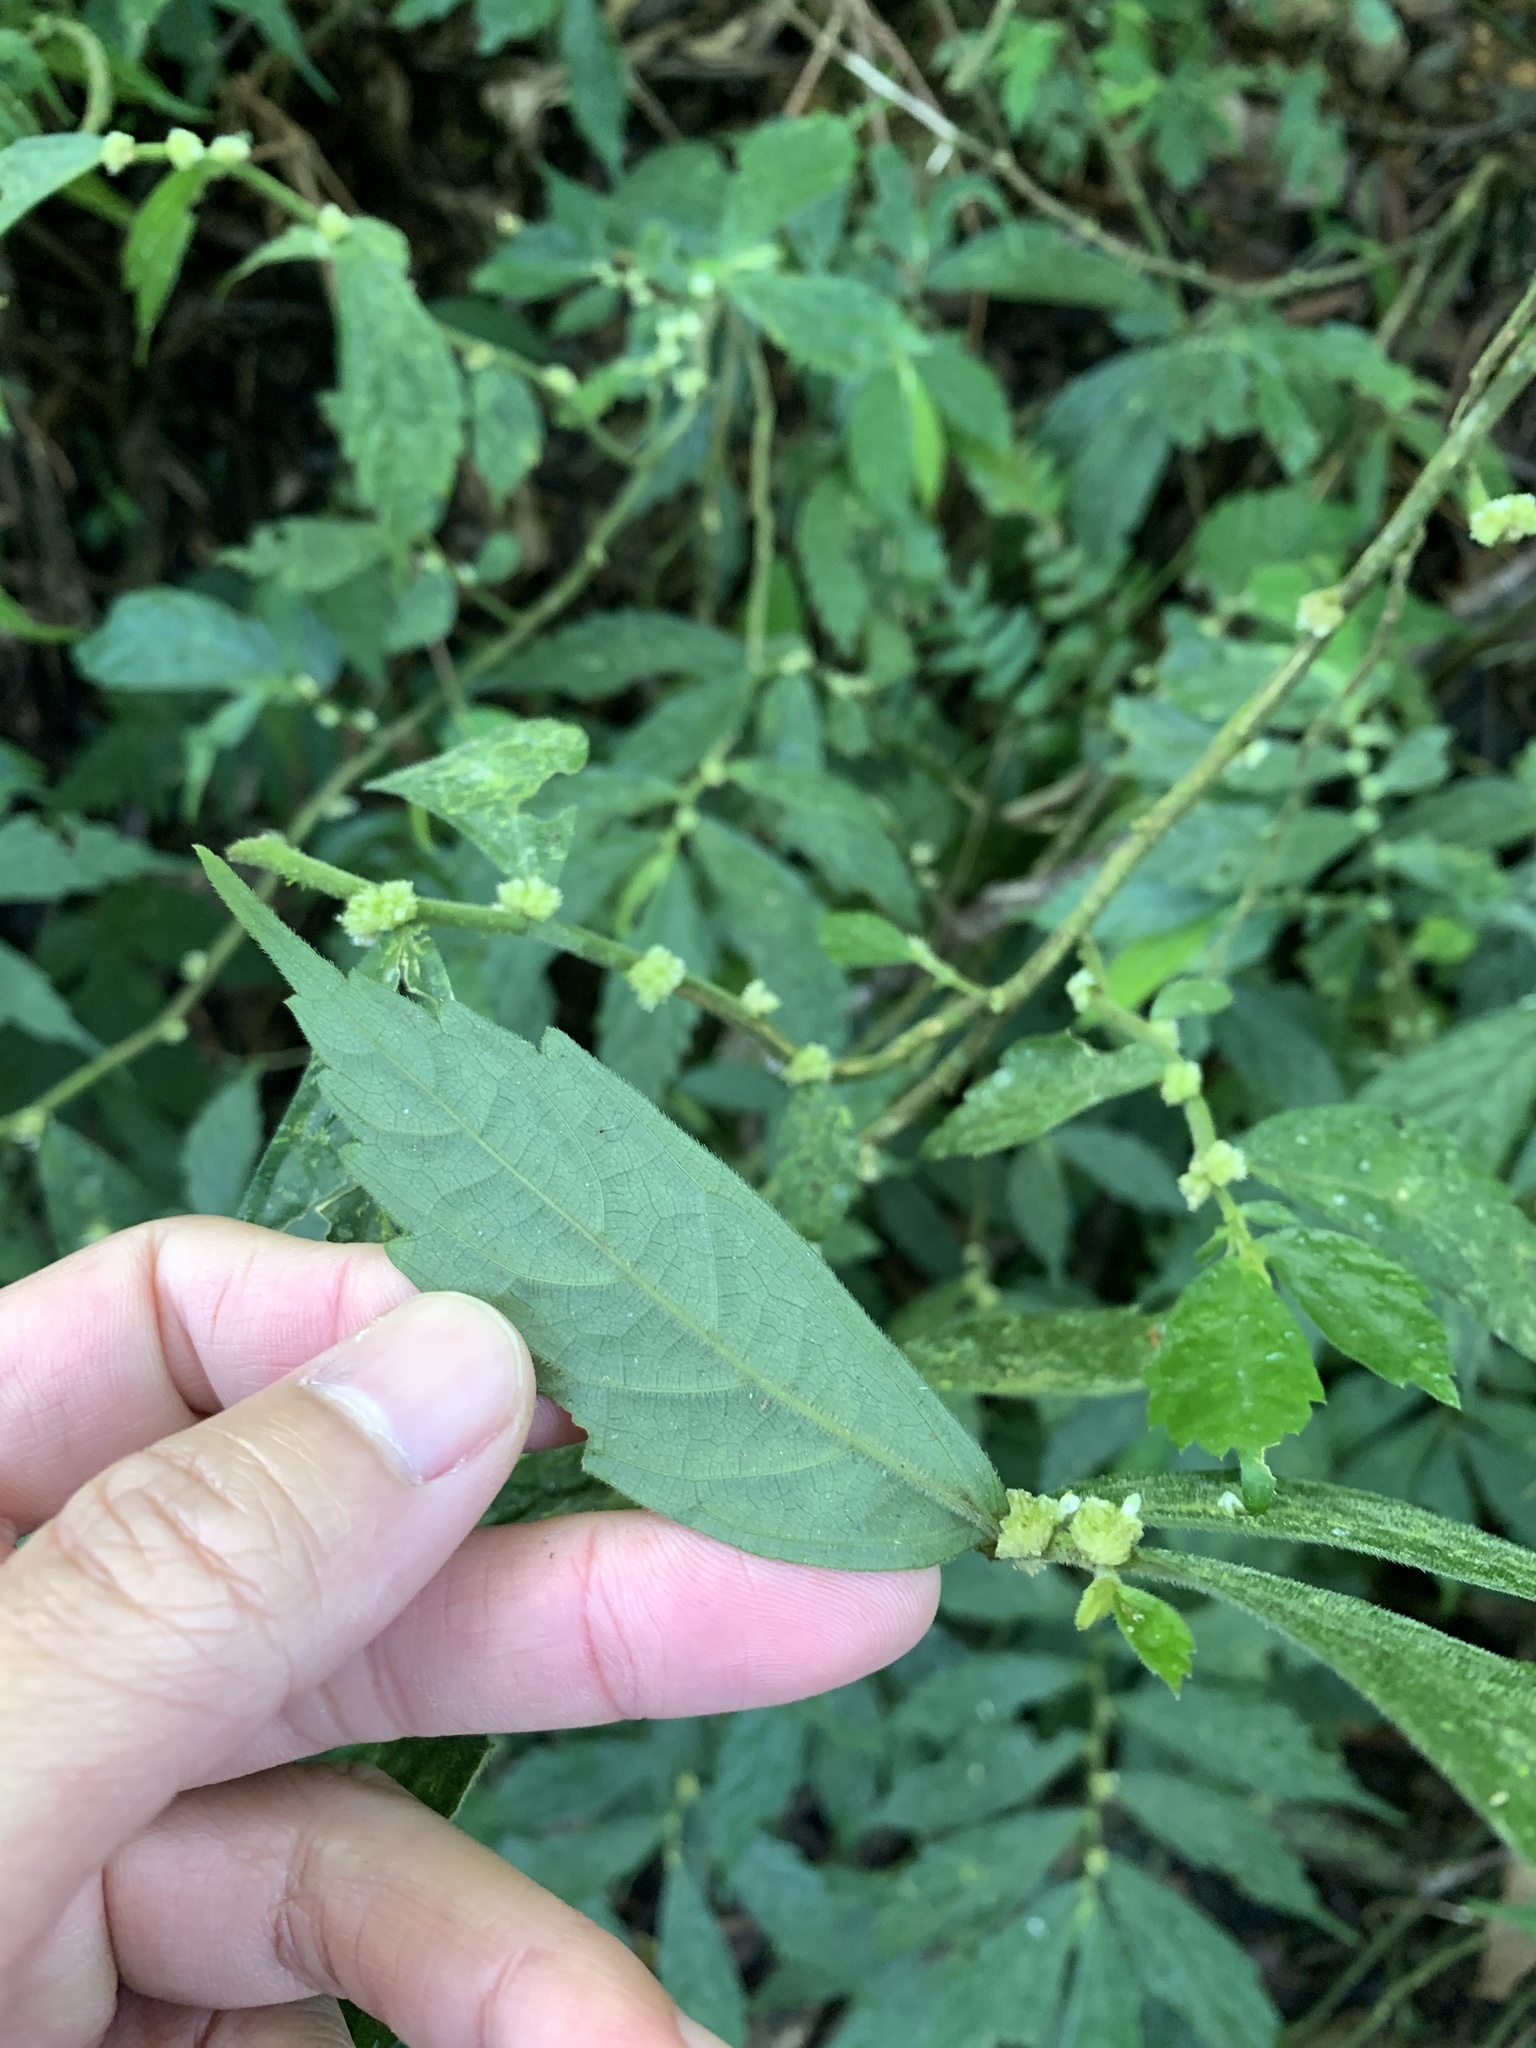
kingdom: Plantae
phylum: Tracheophyta
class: Magnoliopsida
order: Rosales
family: Urticaceae
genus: Elatostema
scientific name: Elatostema lineolatum
